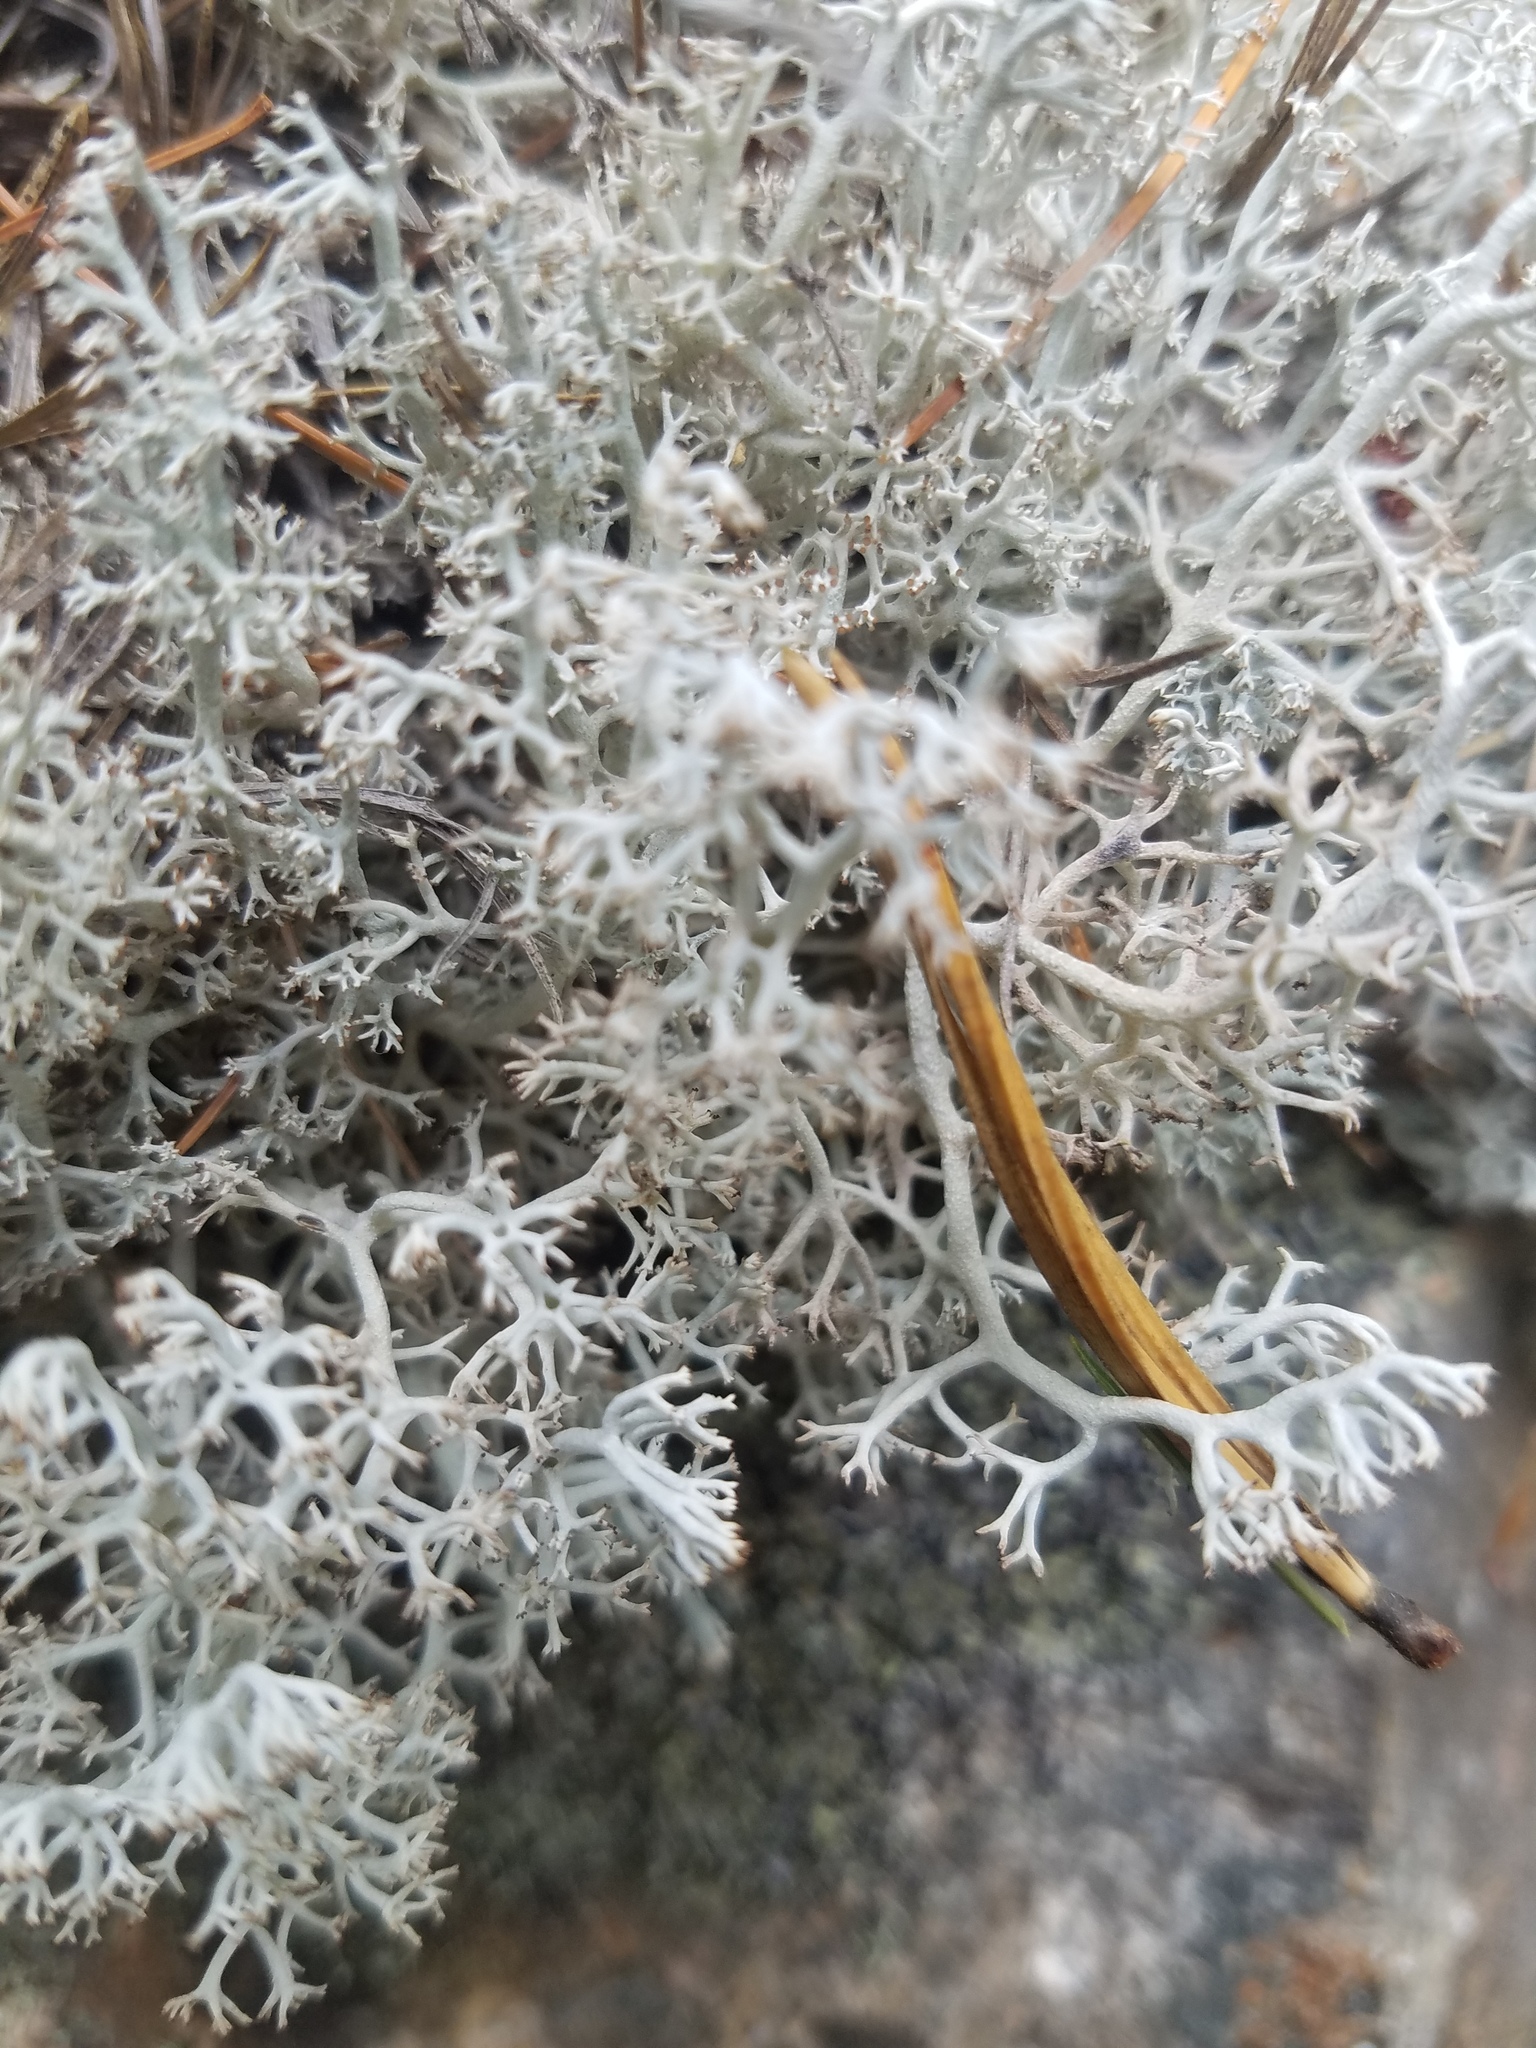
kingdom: Fungi
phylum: Ascomycota
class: Lecanoromycetes
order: Lecanorales
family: Cladoniaceae
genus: Cladonia
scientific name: Cladonia rangiferina
